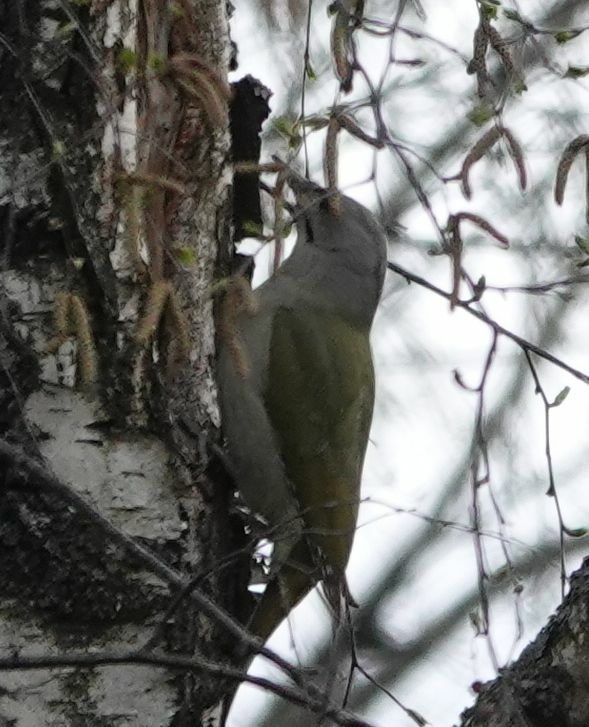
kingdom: Animalia
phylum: Chordata
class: Aves
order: Piciformes
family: Picidae
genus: Picus
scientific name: Picus canus
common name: Grey-headed woodpecker
